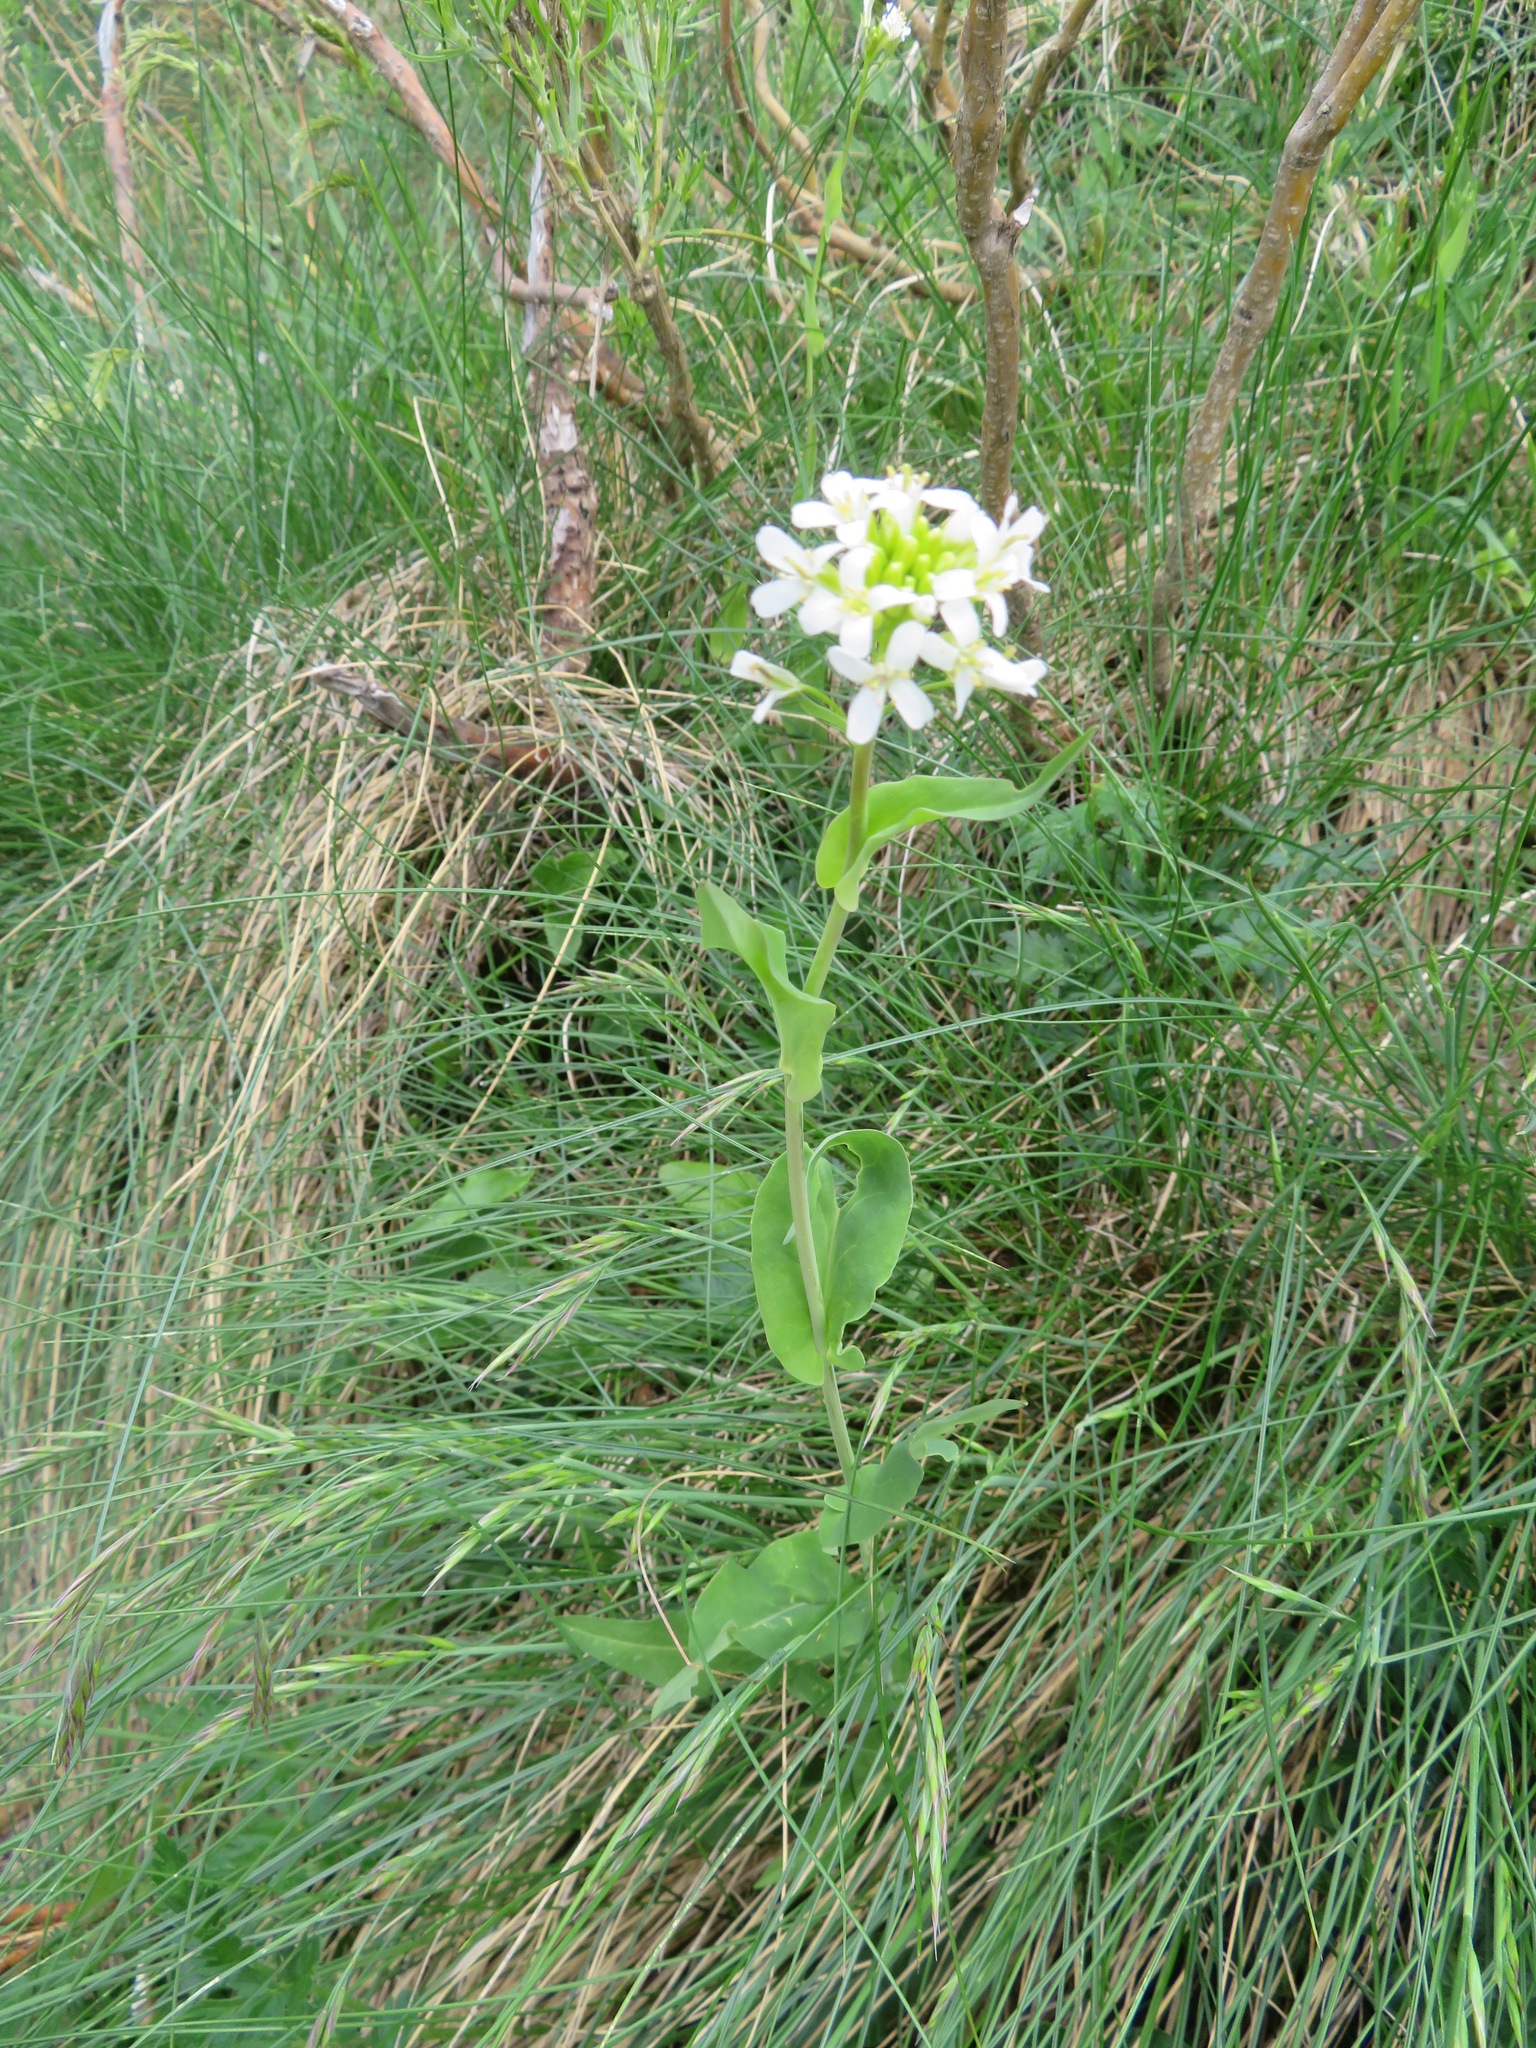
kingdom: Plantae
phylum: Tracheophyta
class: Magnoliopsida
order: Brassicales
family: Brassicaceae
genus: Fourraea
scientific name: Fourraea alpina
